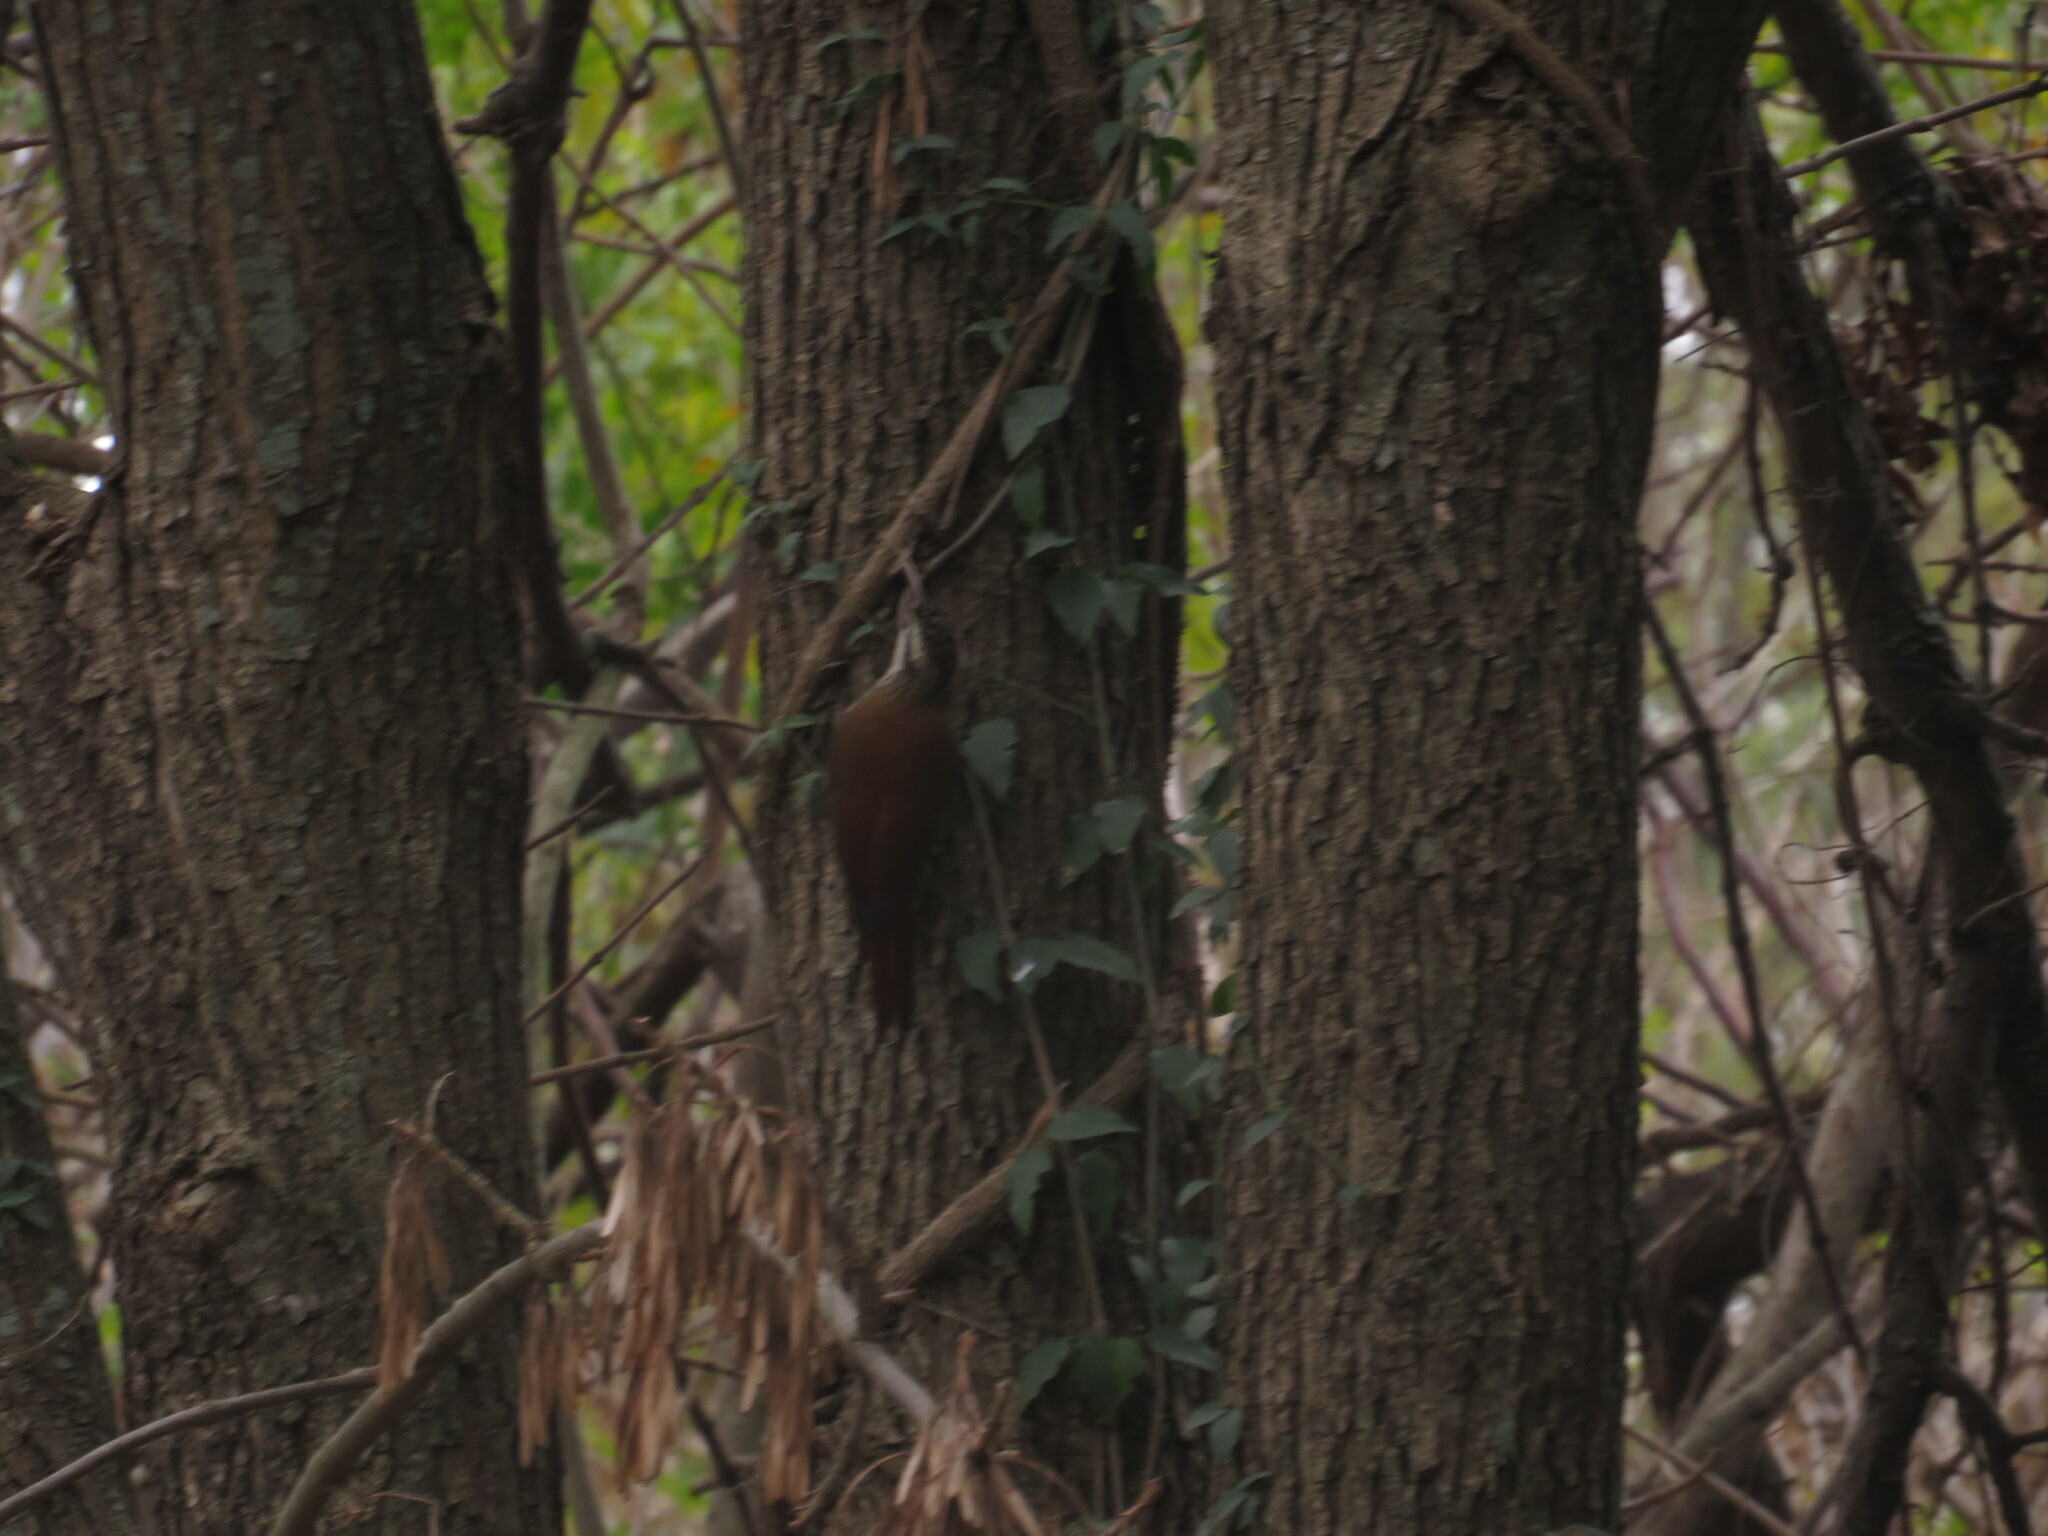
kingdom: Animalia
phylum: Chordata
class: Aves
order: Passeriformes
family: Furnariidae
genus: Lepidocolaptes
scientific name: Lepidocolaptes angustirostris
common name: Narrow-billed woodcreeper
